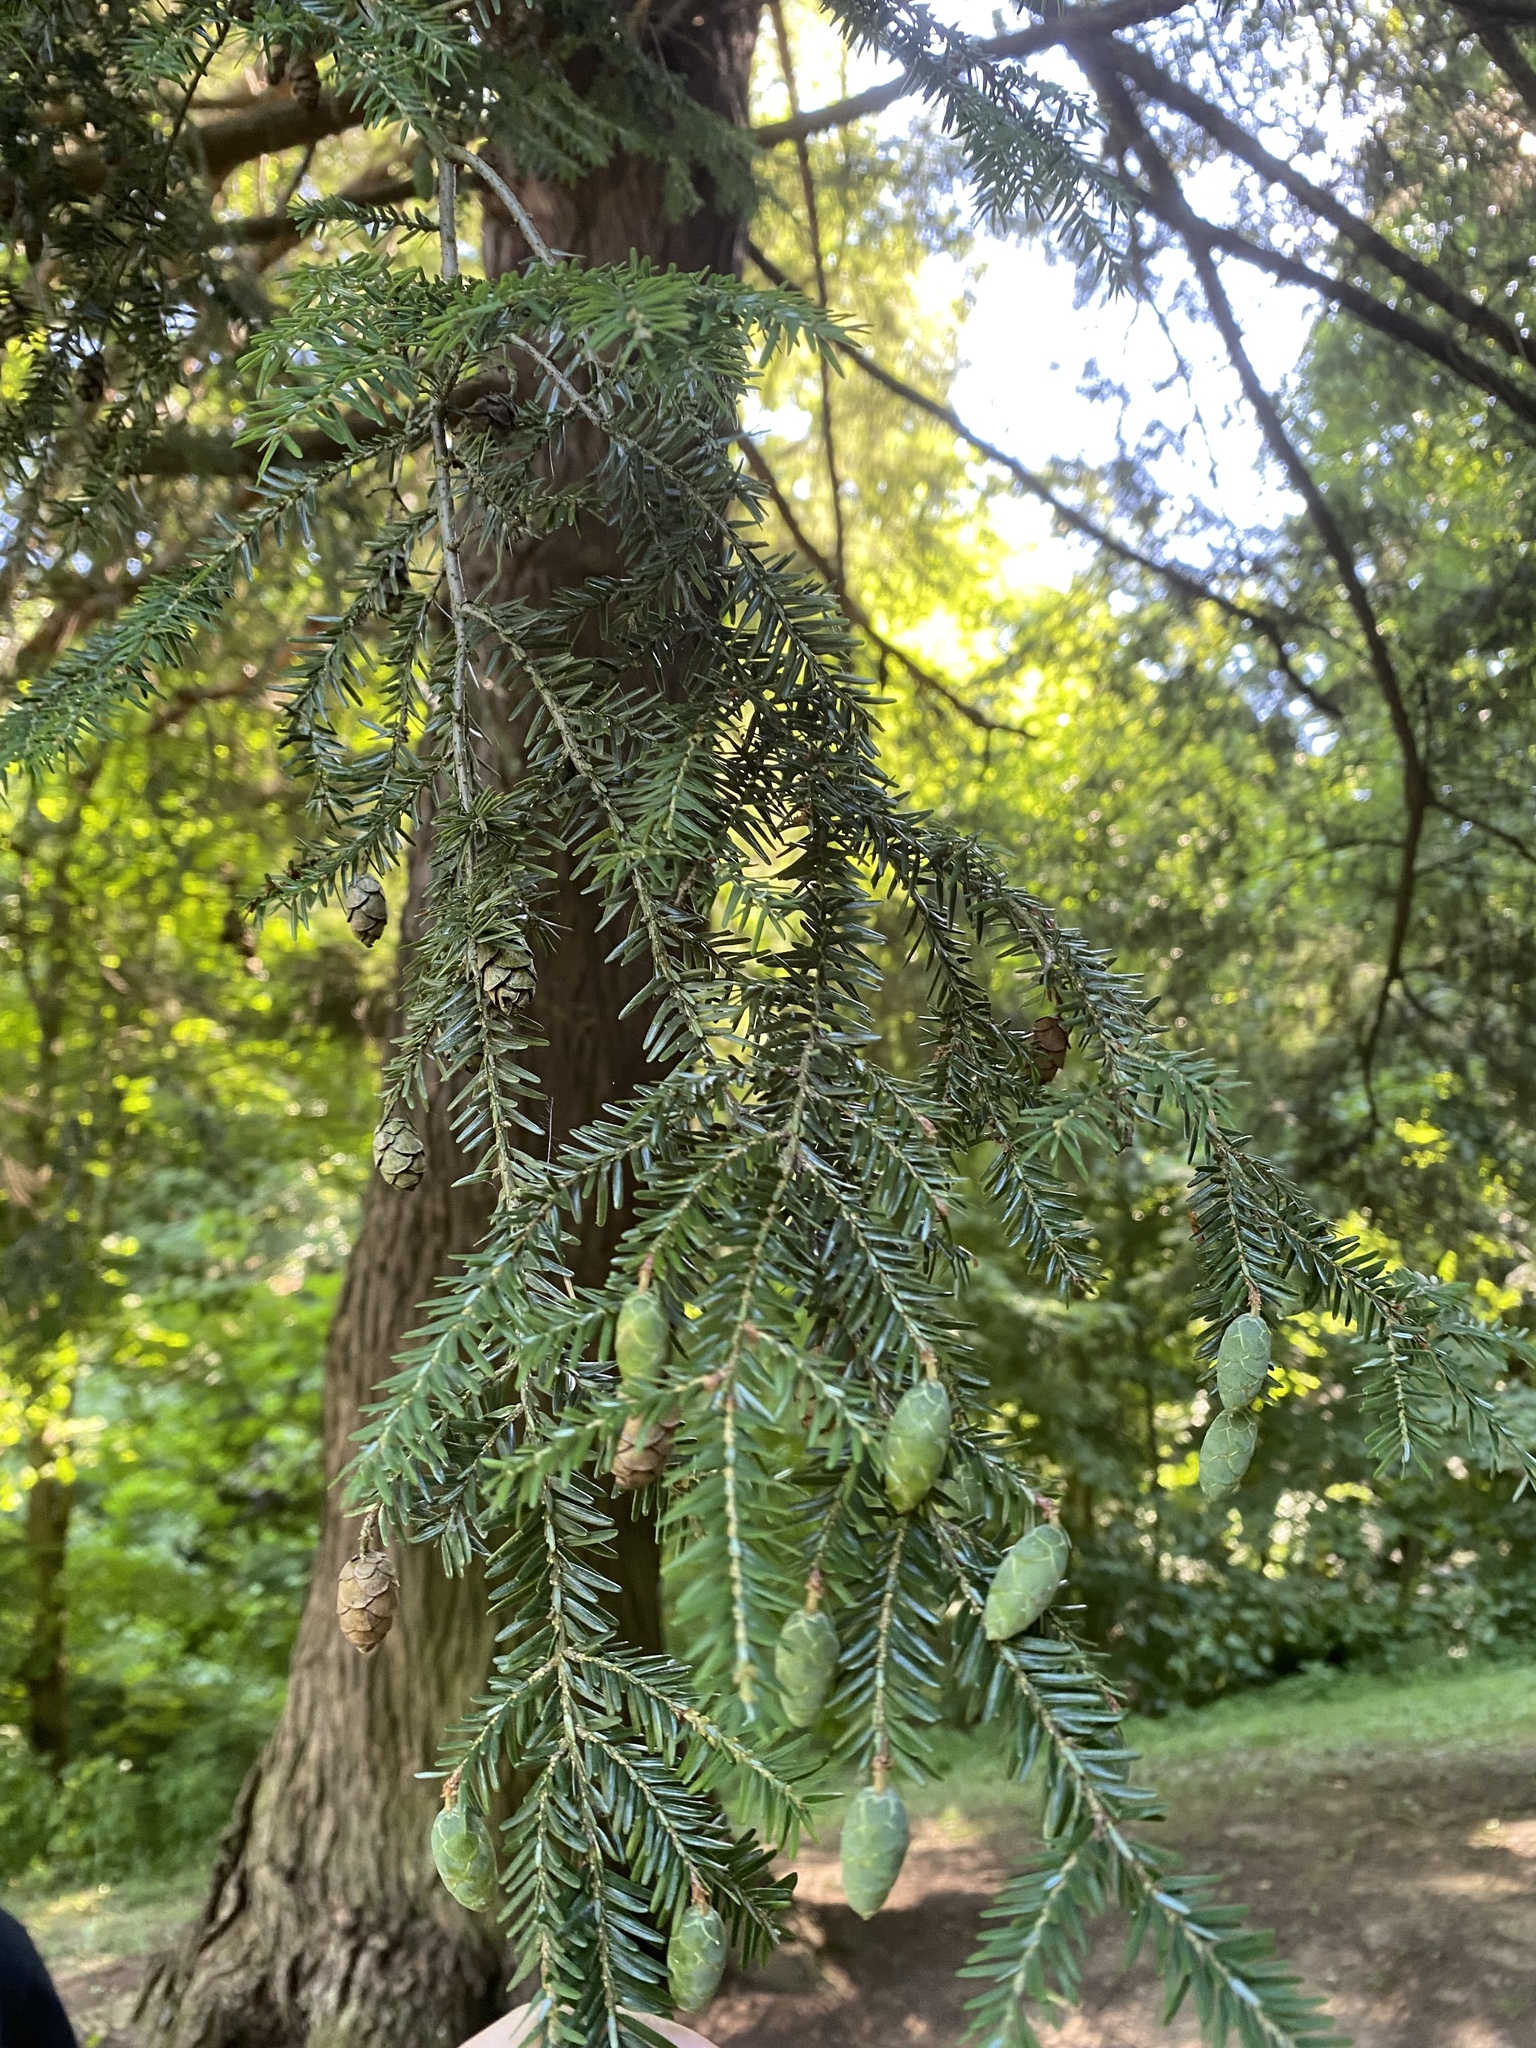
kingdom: Plantae
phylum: Tracheophyta
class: Pinopsida
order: Pinales
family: Pinaceae
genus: Tsuga
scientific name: Tsuga canadensis
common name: Eastern hemlock
